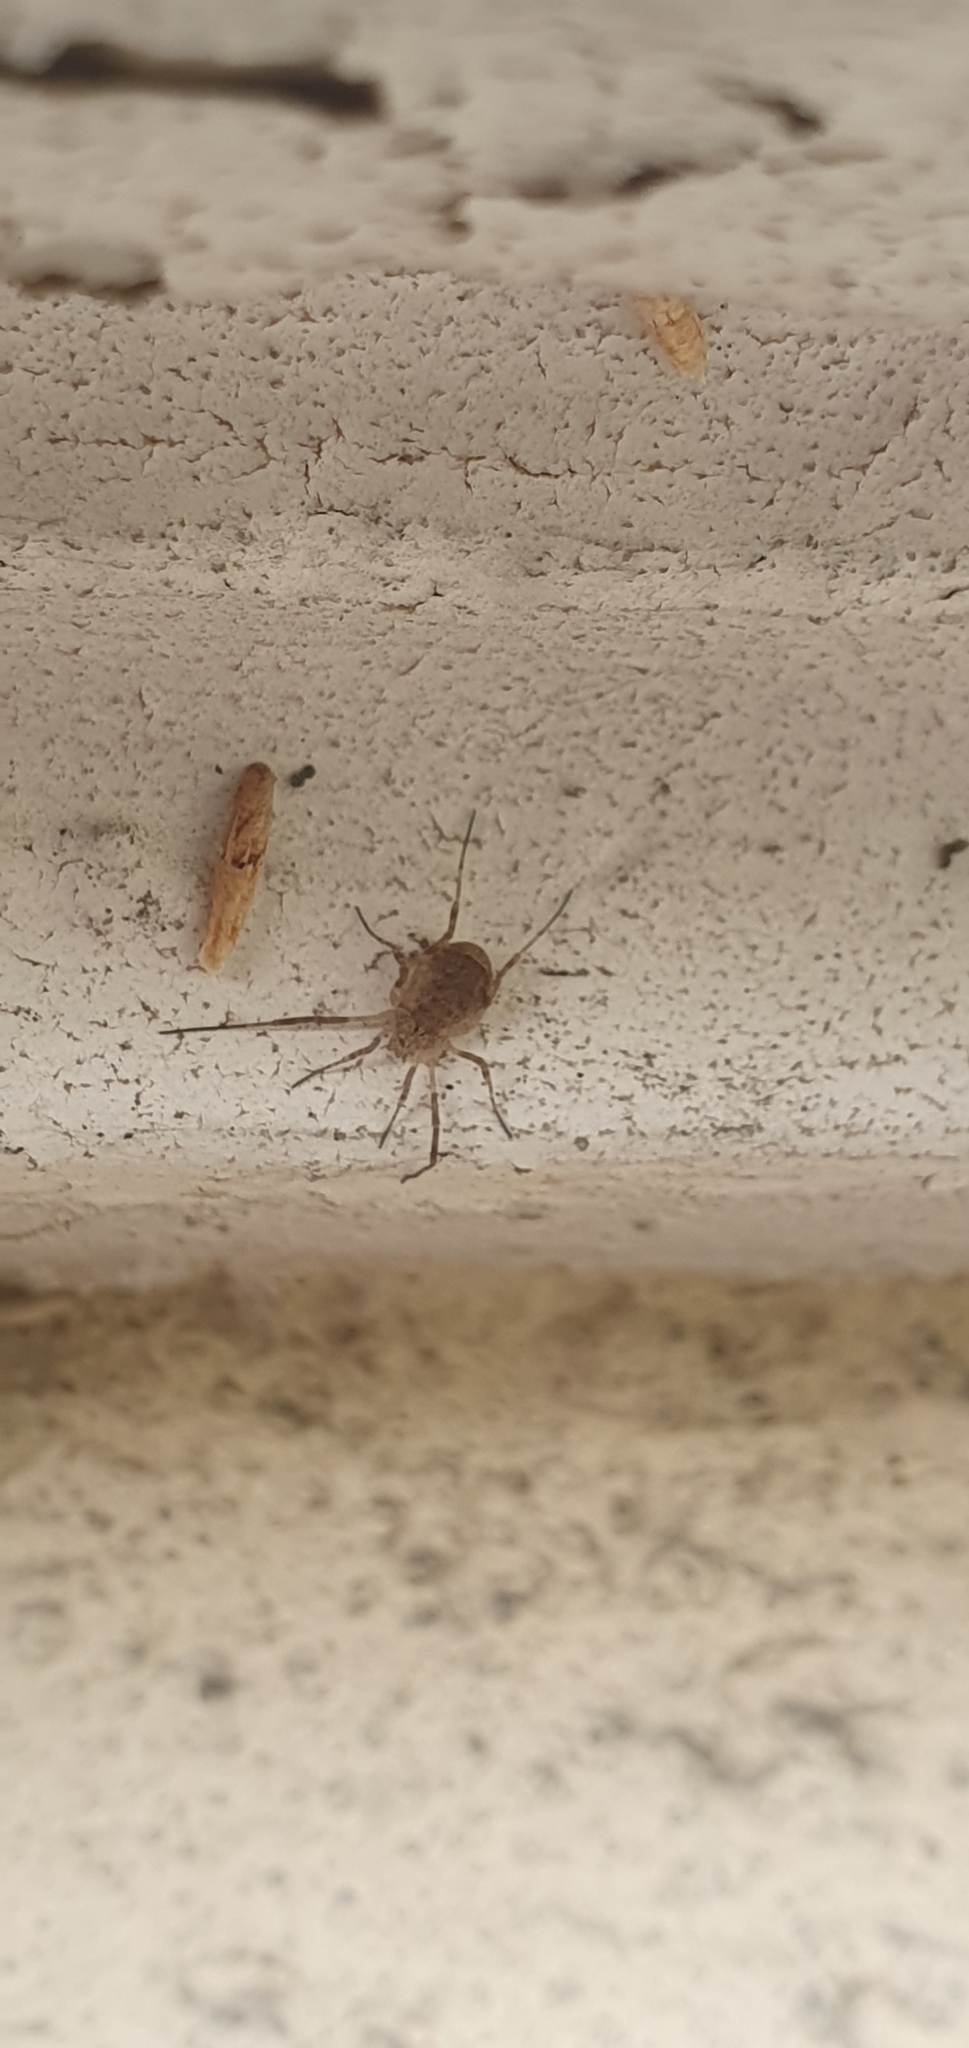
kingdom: Animalia
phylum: Arthropoda
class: Arachnida
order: Opiliones
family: Phalangiidae
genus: Odiellus
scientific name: Odiellus spinosus
